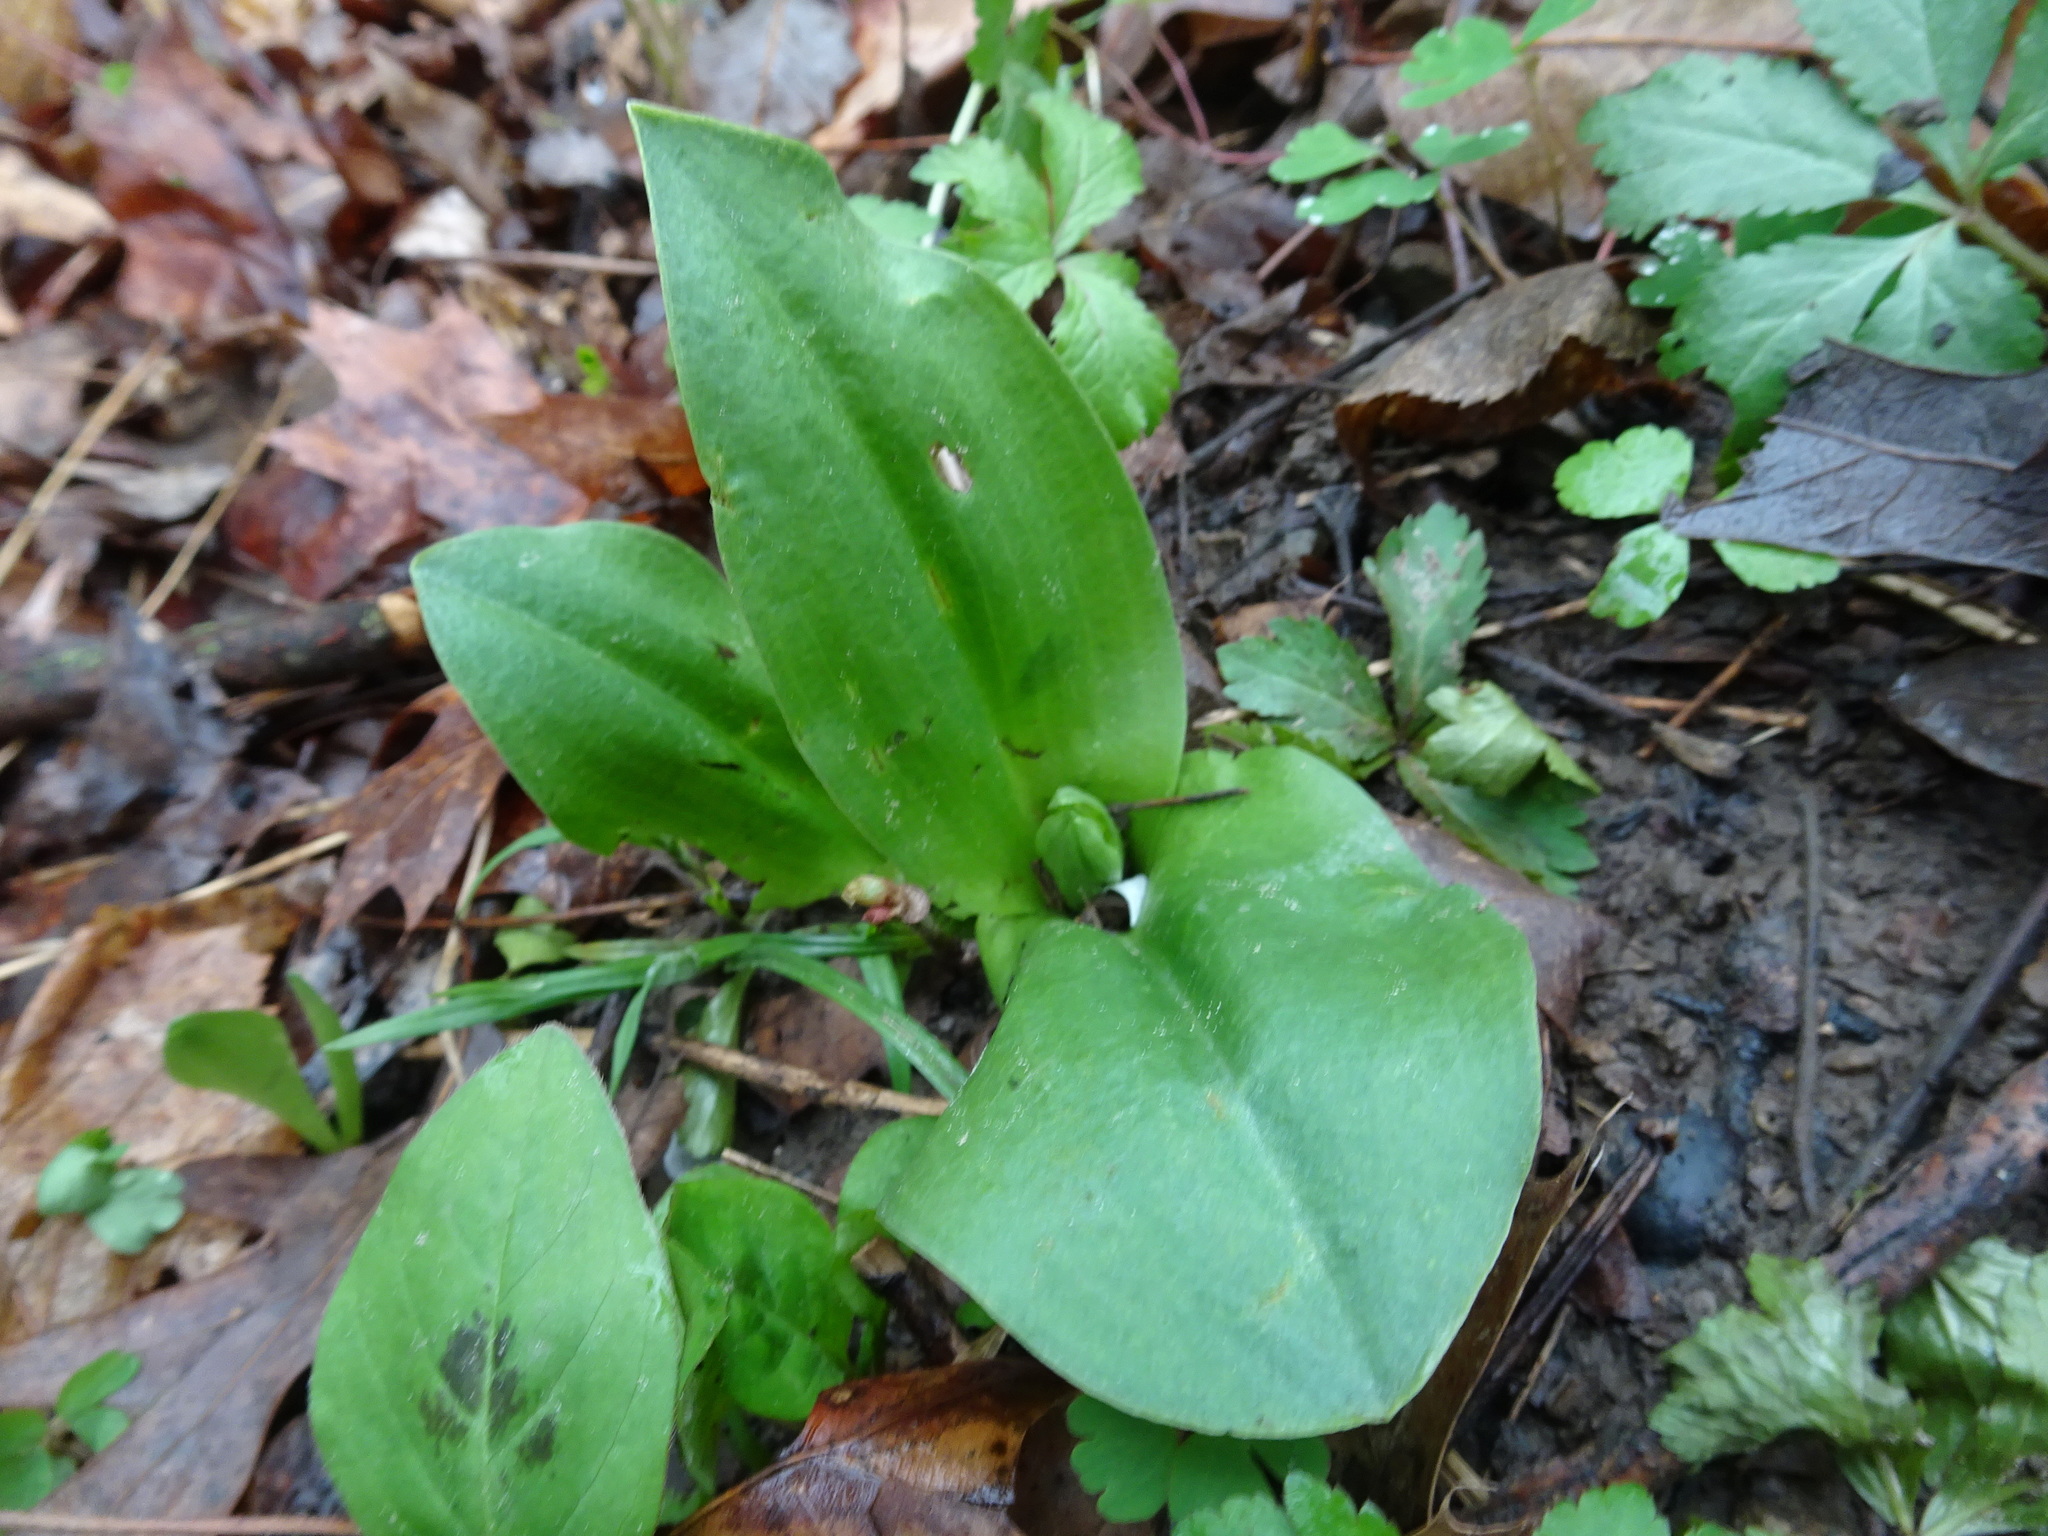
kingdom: Plantae
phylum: Tracheophyta
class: Liliopsida
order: Asparagales
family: Orchidaceae
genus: Galearis
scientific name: Galearis spectabilis
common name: Purple-hooded orchis
